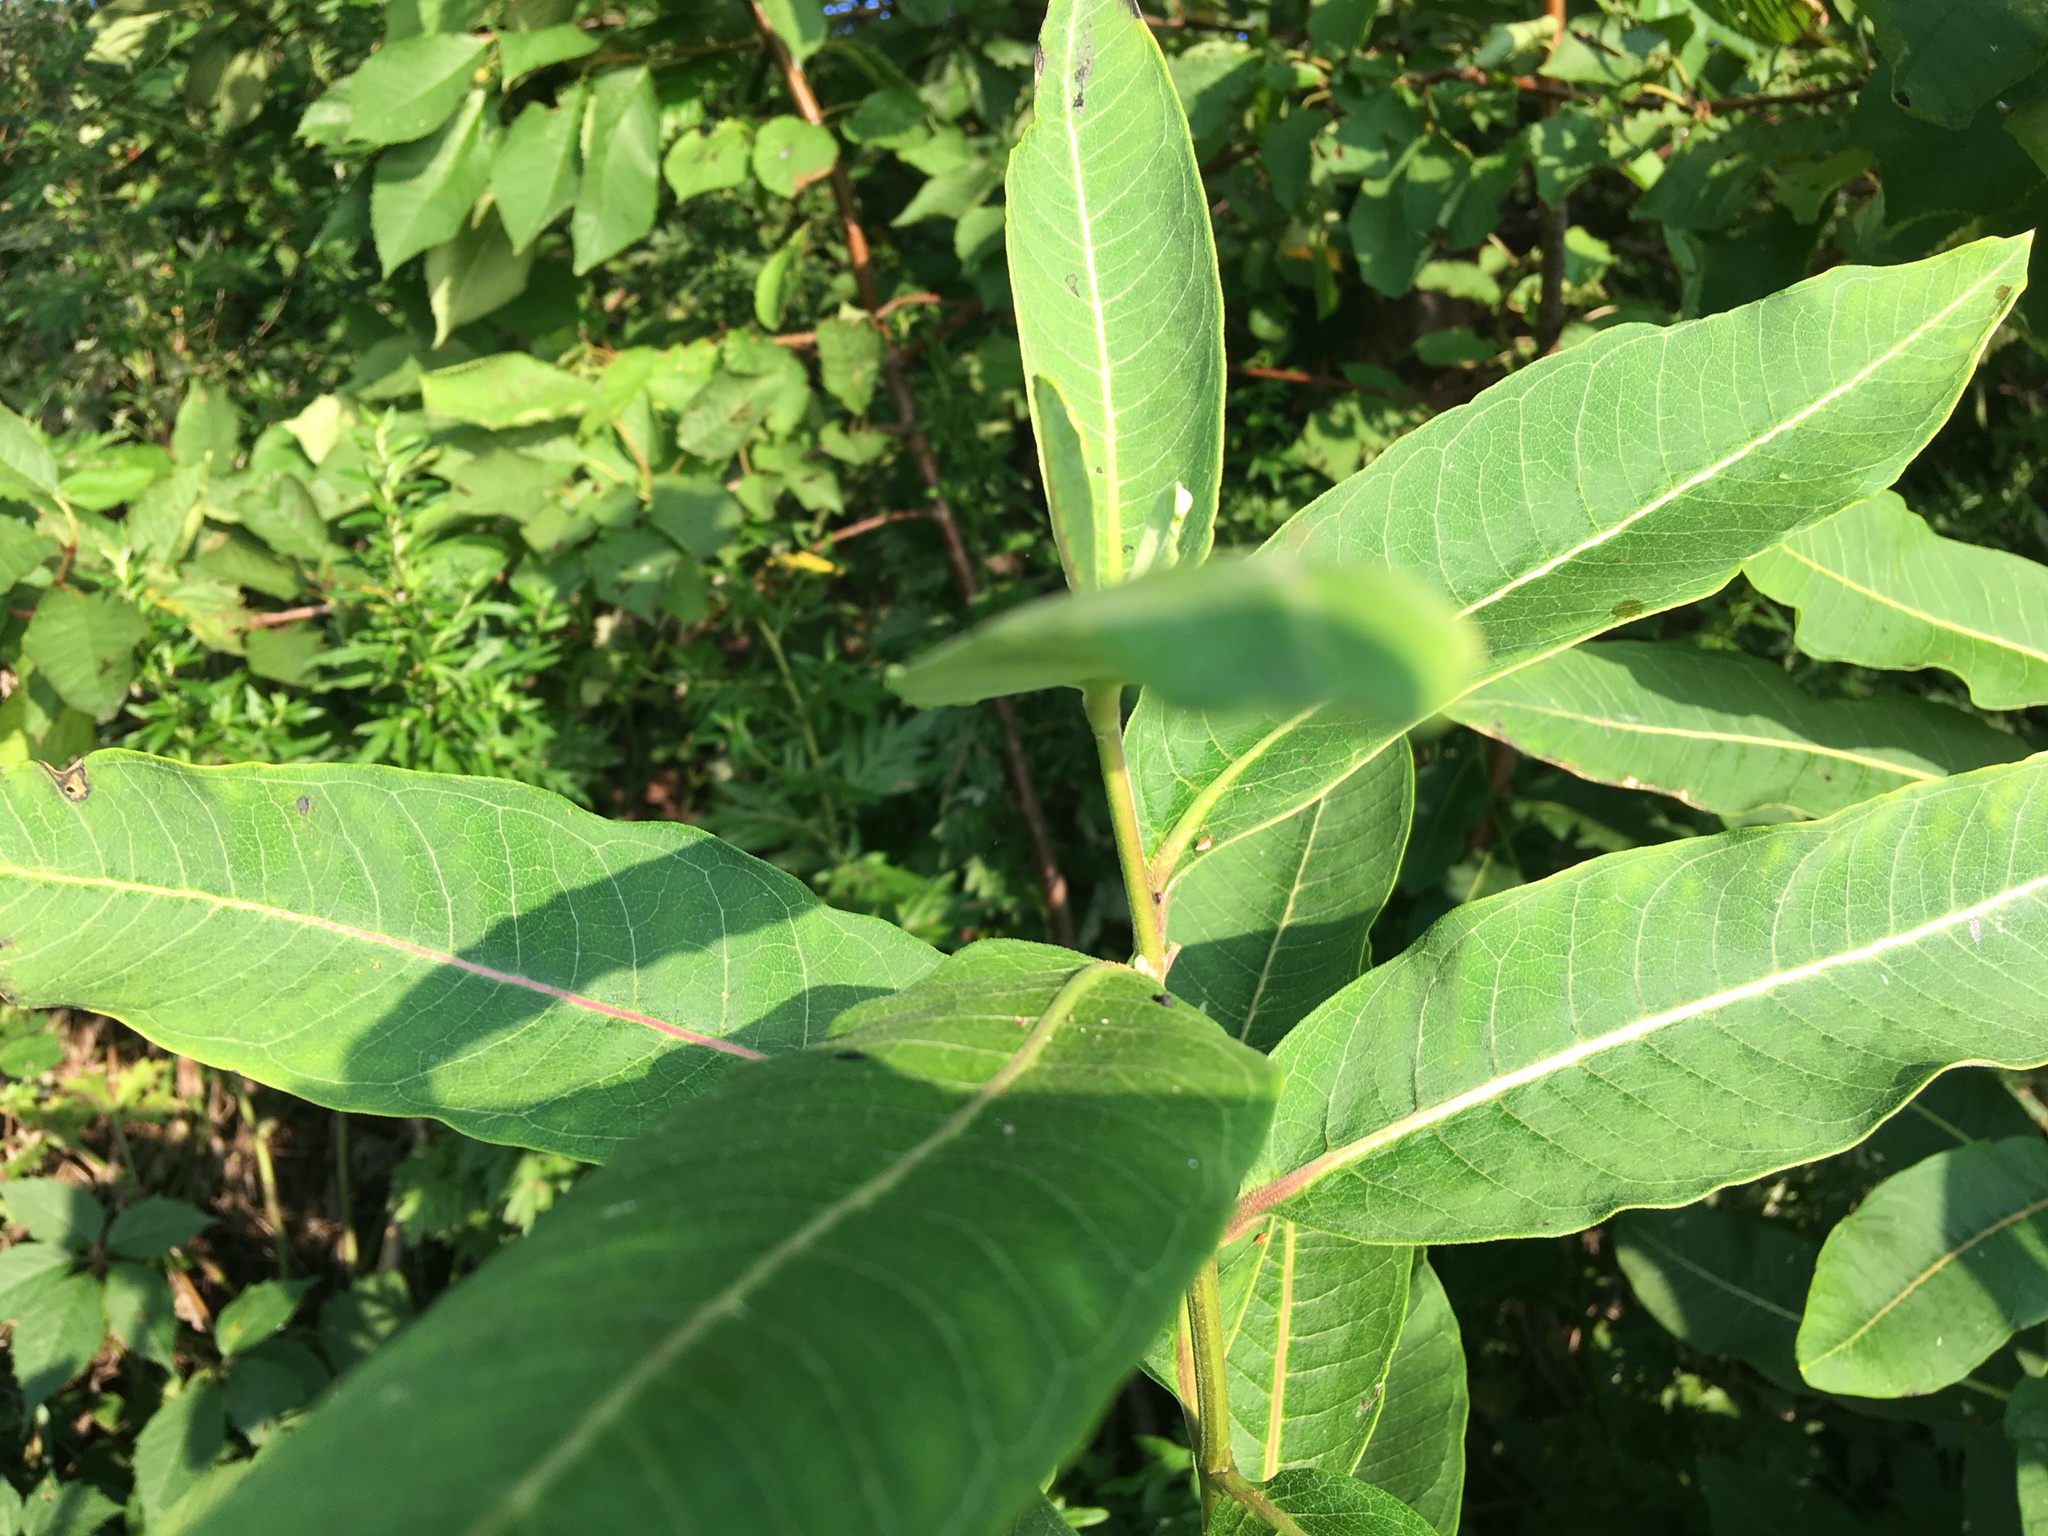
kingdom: Plantae
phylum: Tracheophyta
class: Magnoliopsida
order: Gentianales
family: Apocynaceae
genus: Asclepias
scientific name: Asclepias syriaca
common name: Common milkweed
